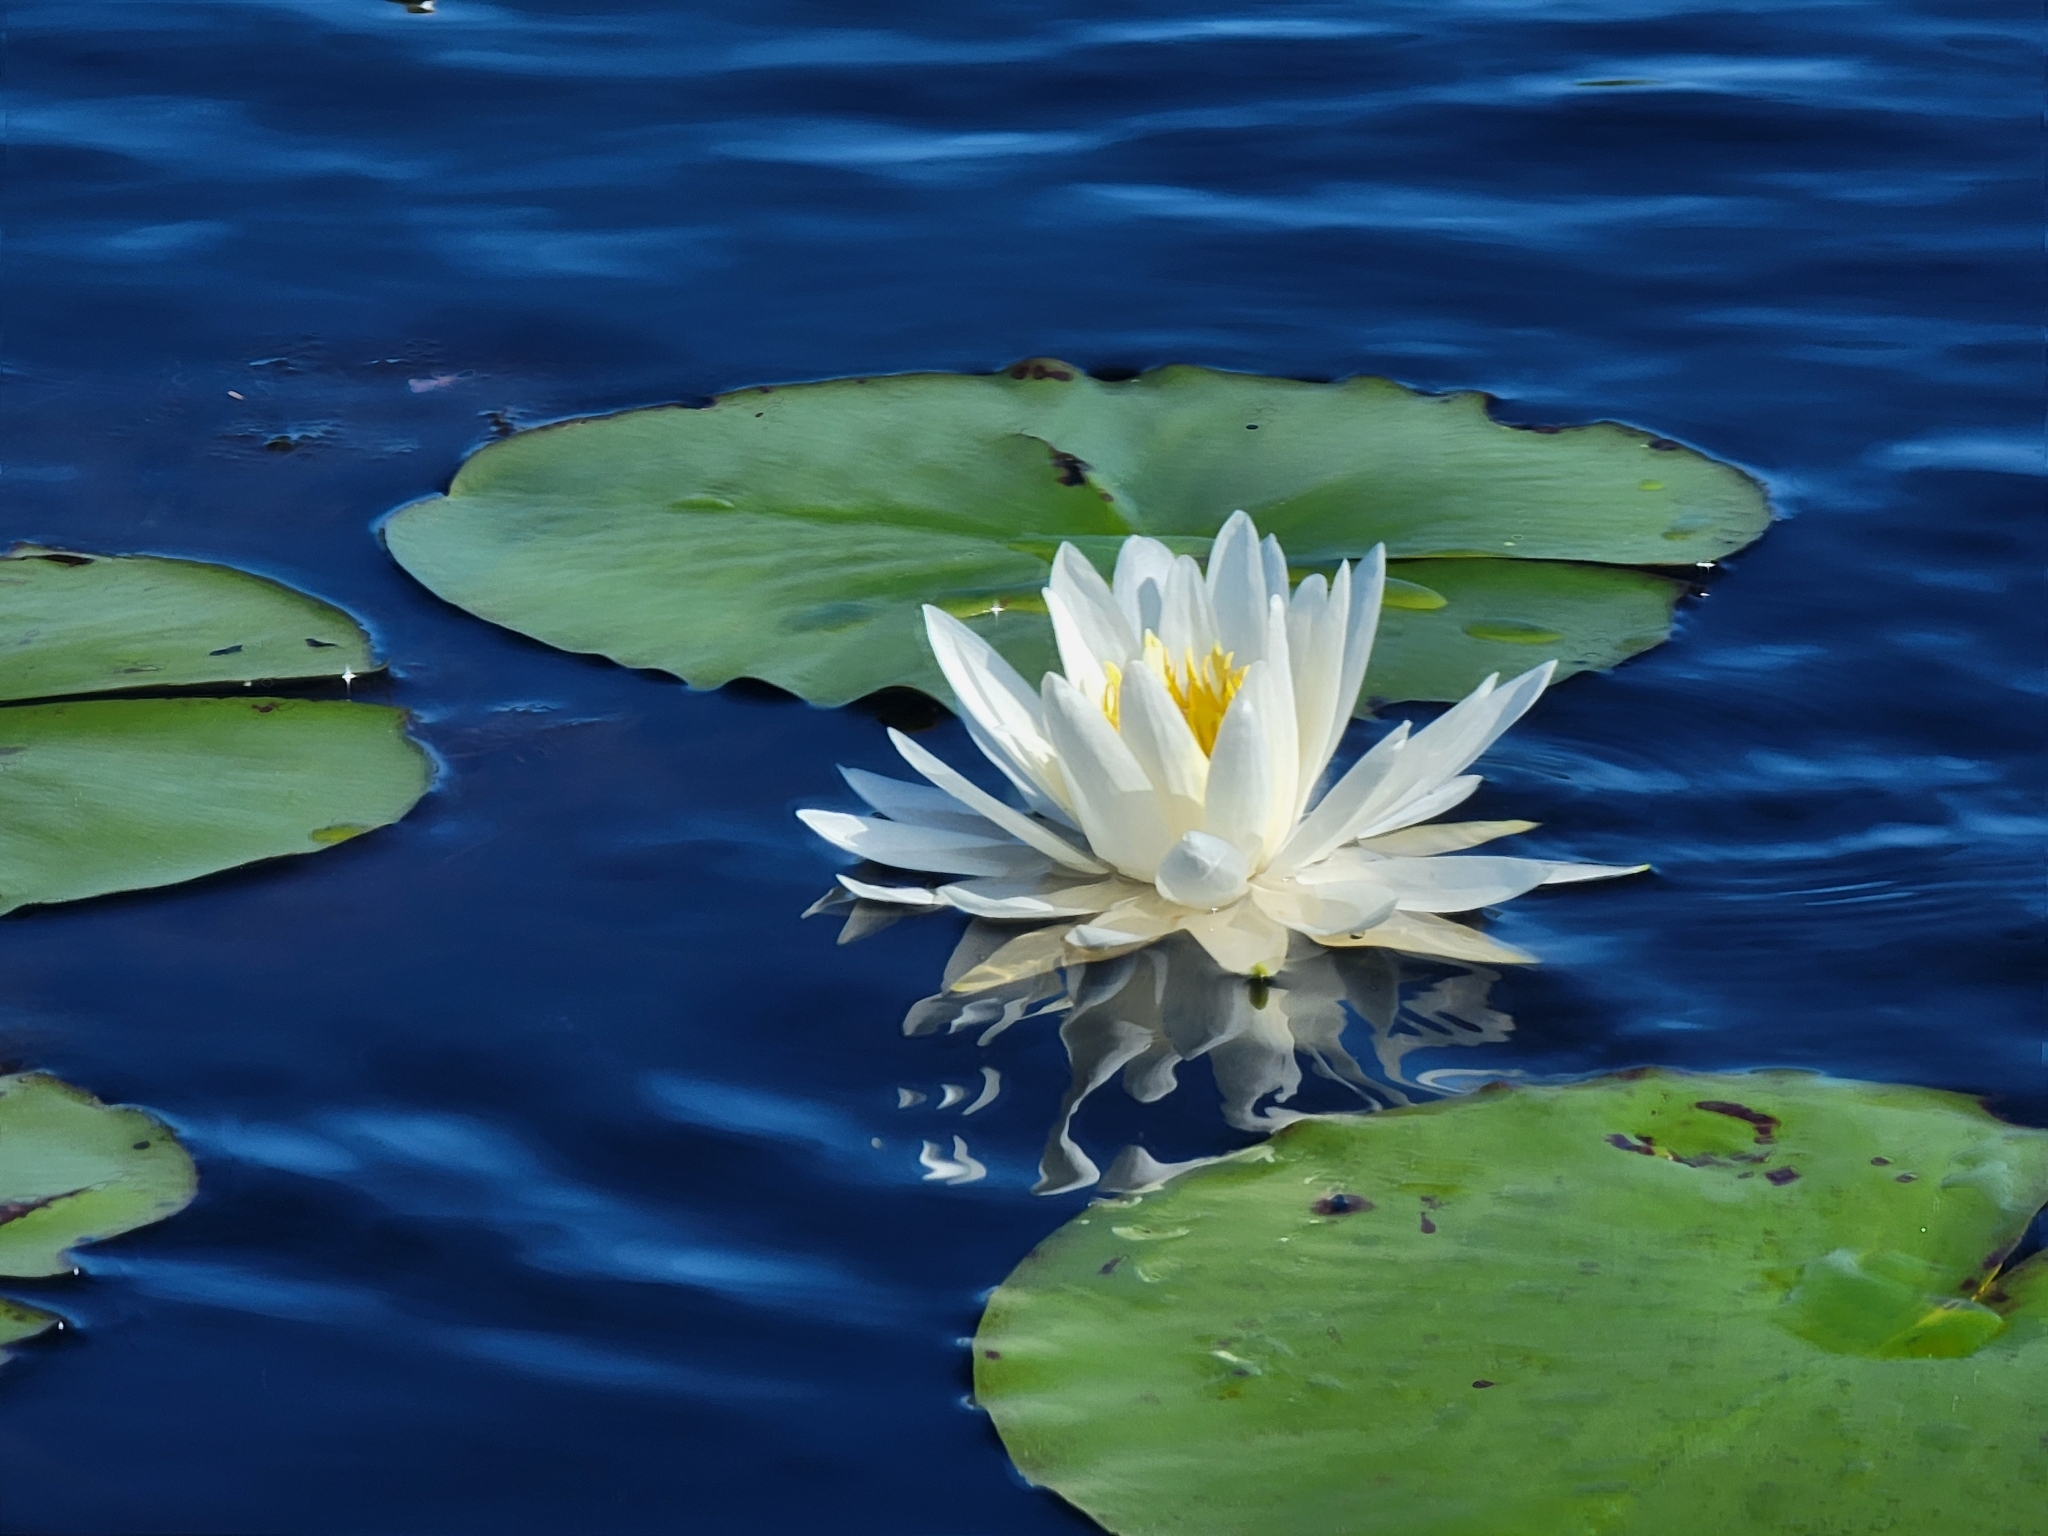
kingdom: Plantae
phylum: Tracheophyta
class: Magnoliopsida
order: Nymphaeales
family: Nymphaeaceae
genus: Nymphaea
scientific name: Nymphaea odorata
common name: Fragrant water-lily
